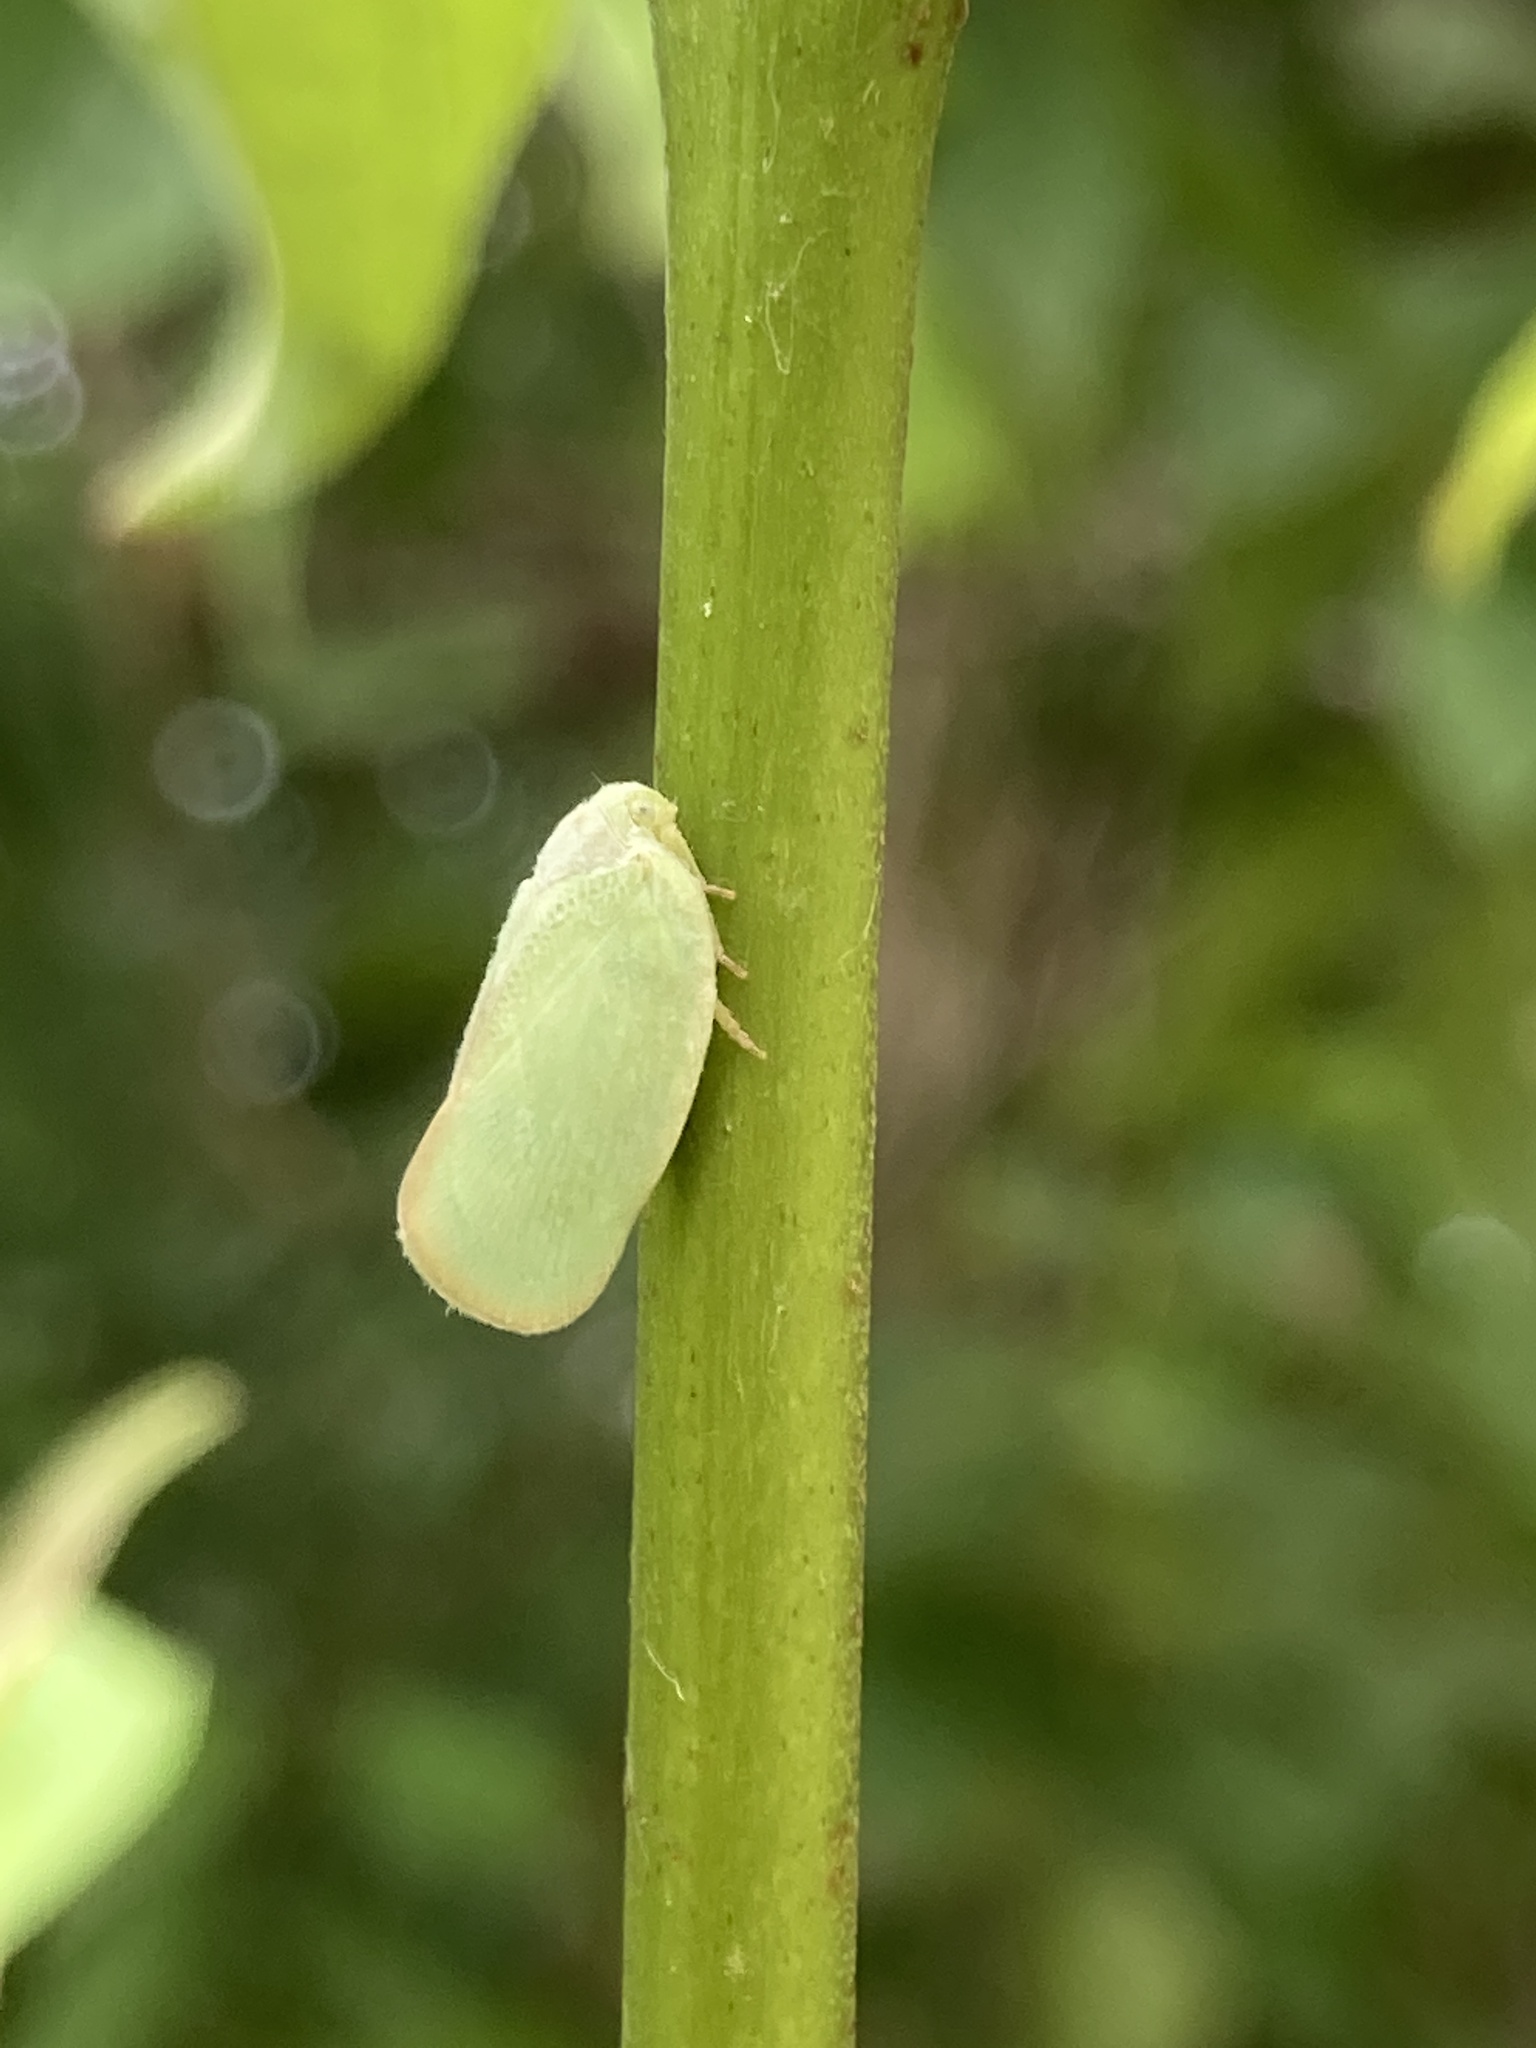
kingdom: Animalia
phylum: Arthropoda
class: Insecta
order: Hemiptera
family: Flatidae
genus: Ormenoides
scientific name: Ormenoides venusta
